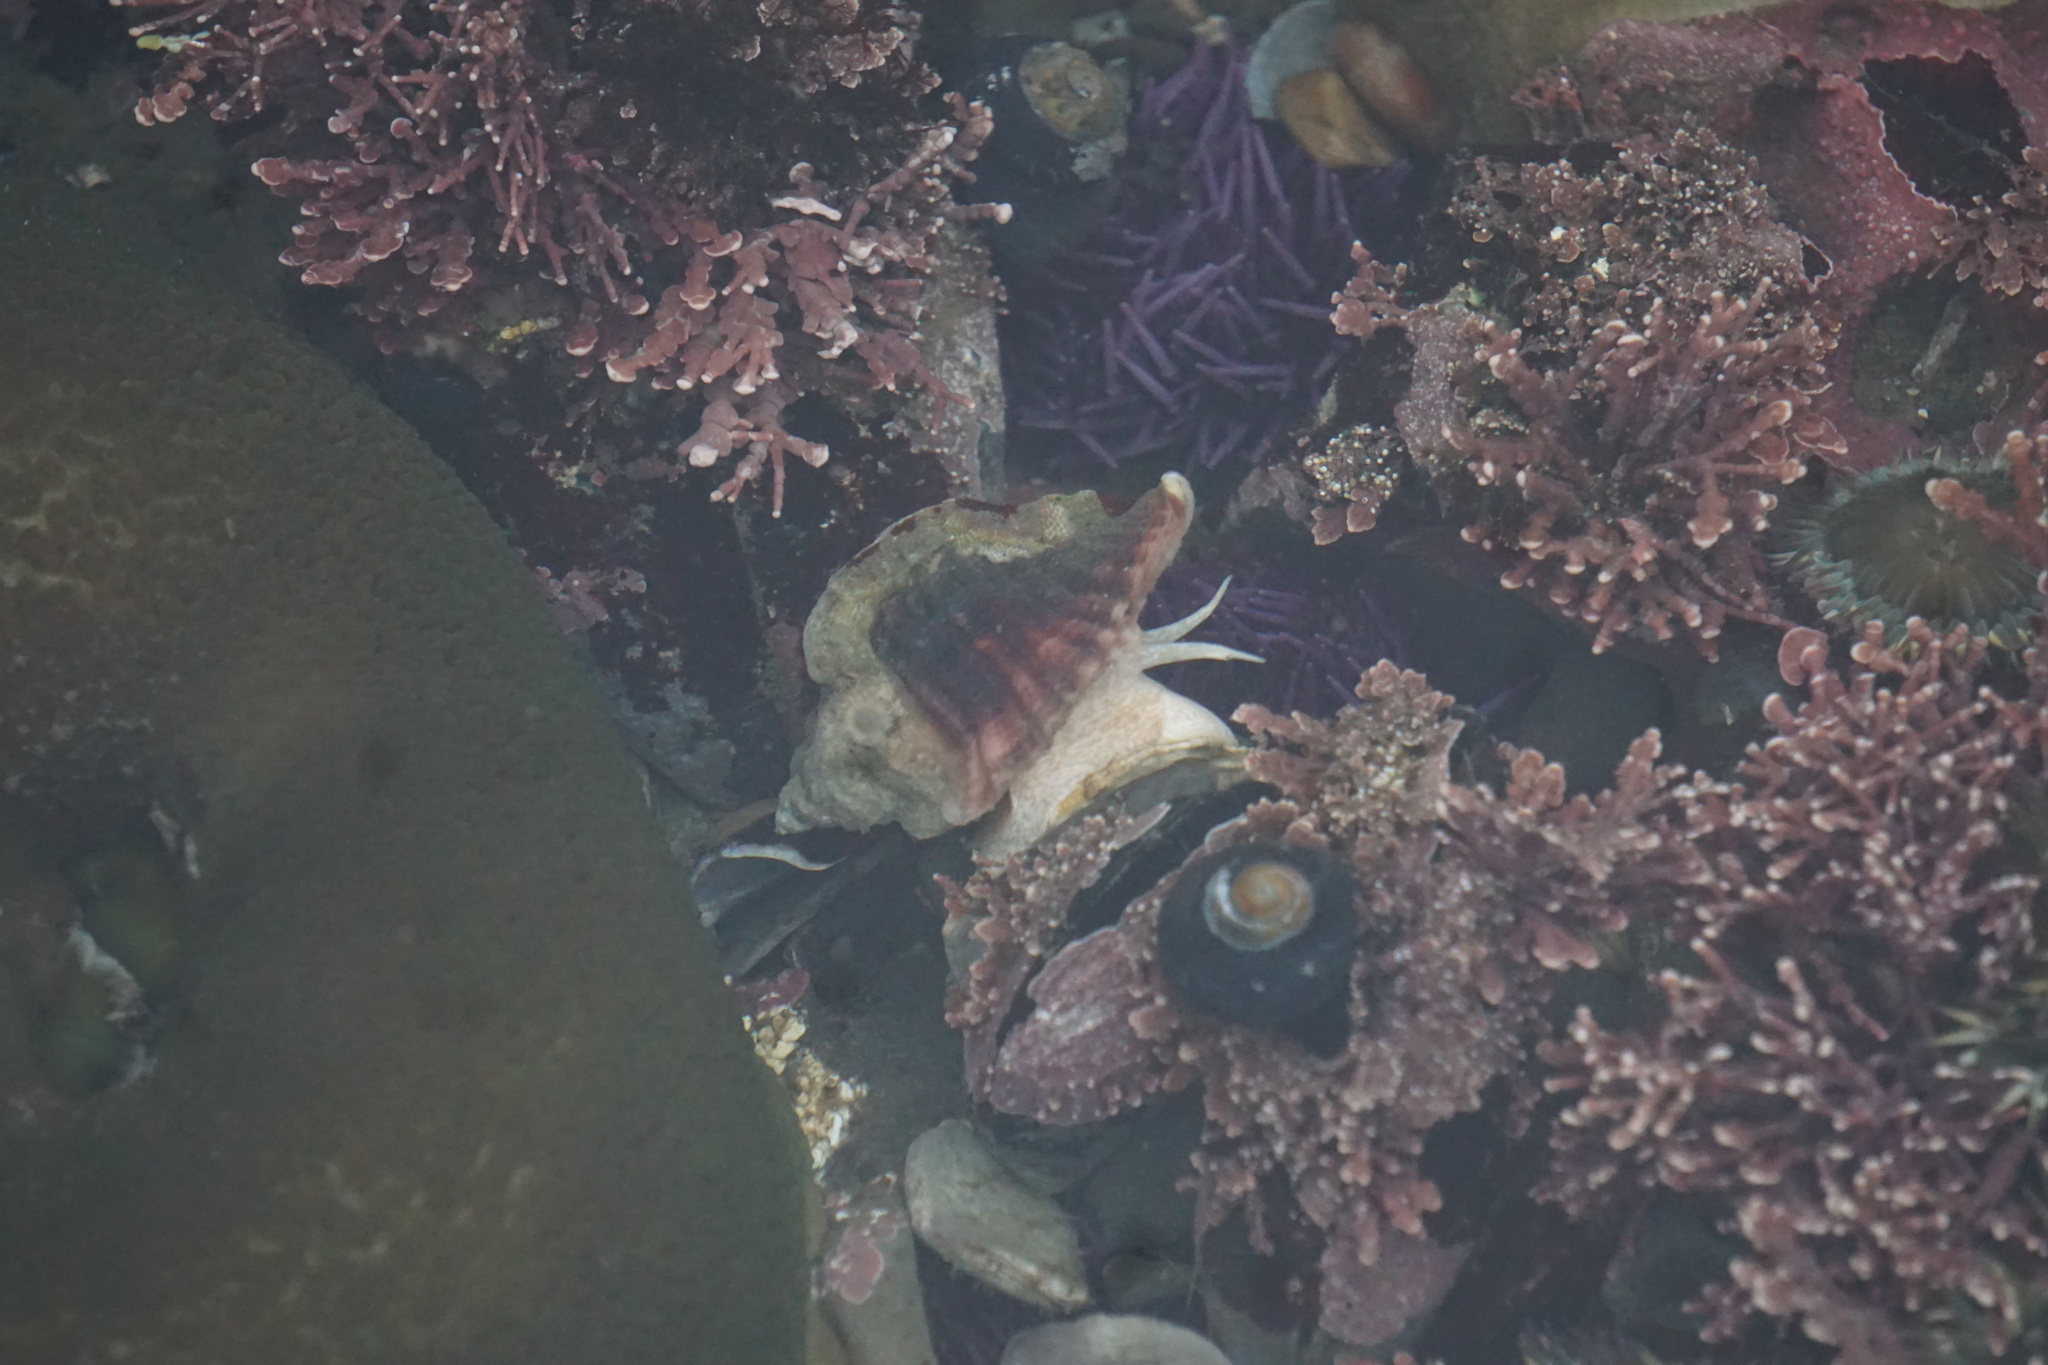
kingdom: Animalia
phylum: Mollusca
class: Gastropoda
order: Neogastropoda
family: Muricidae
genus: Ceratostoma
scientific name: Ceratostoma foliatum
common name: Foliate thorn purpura
